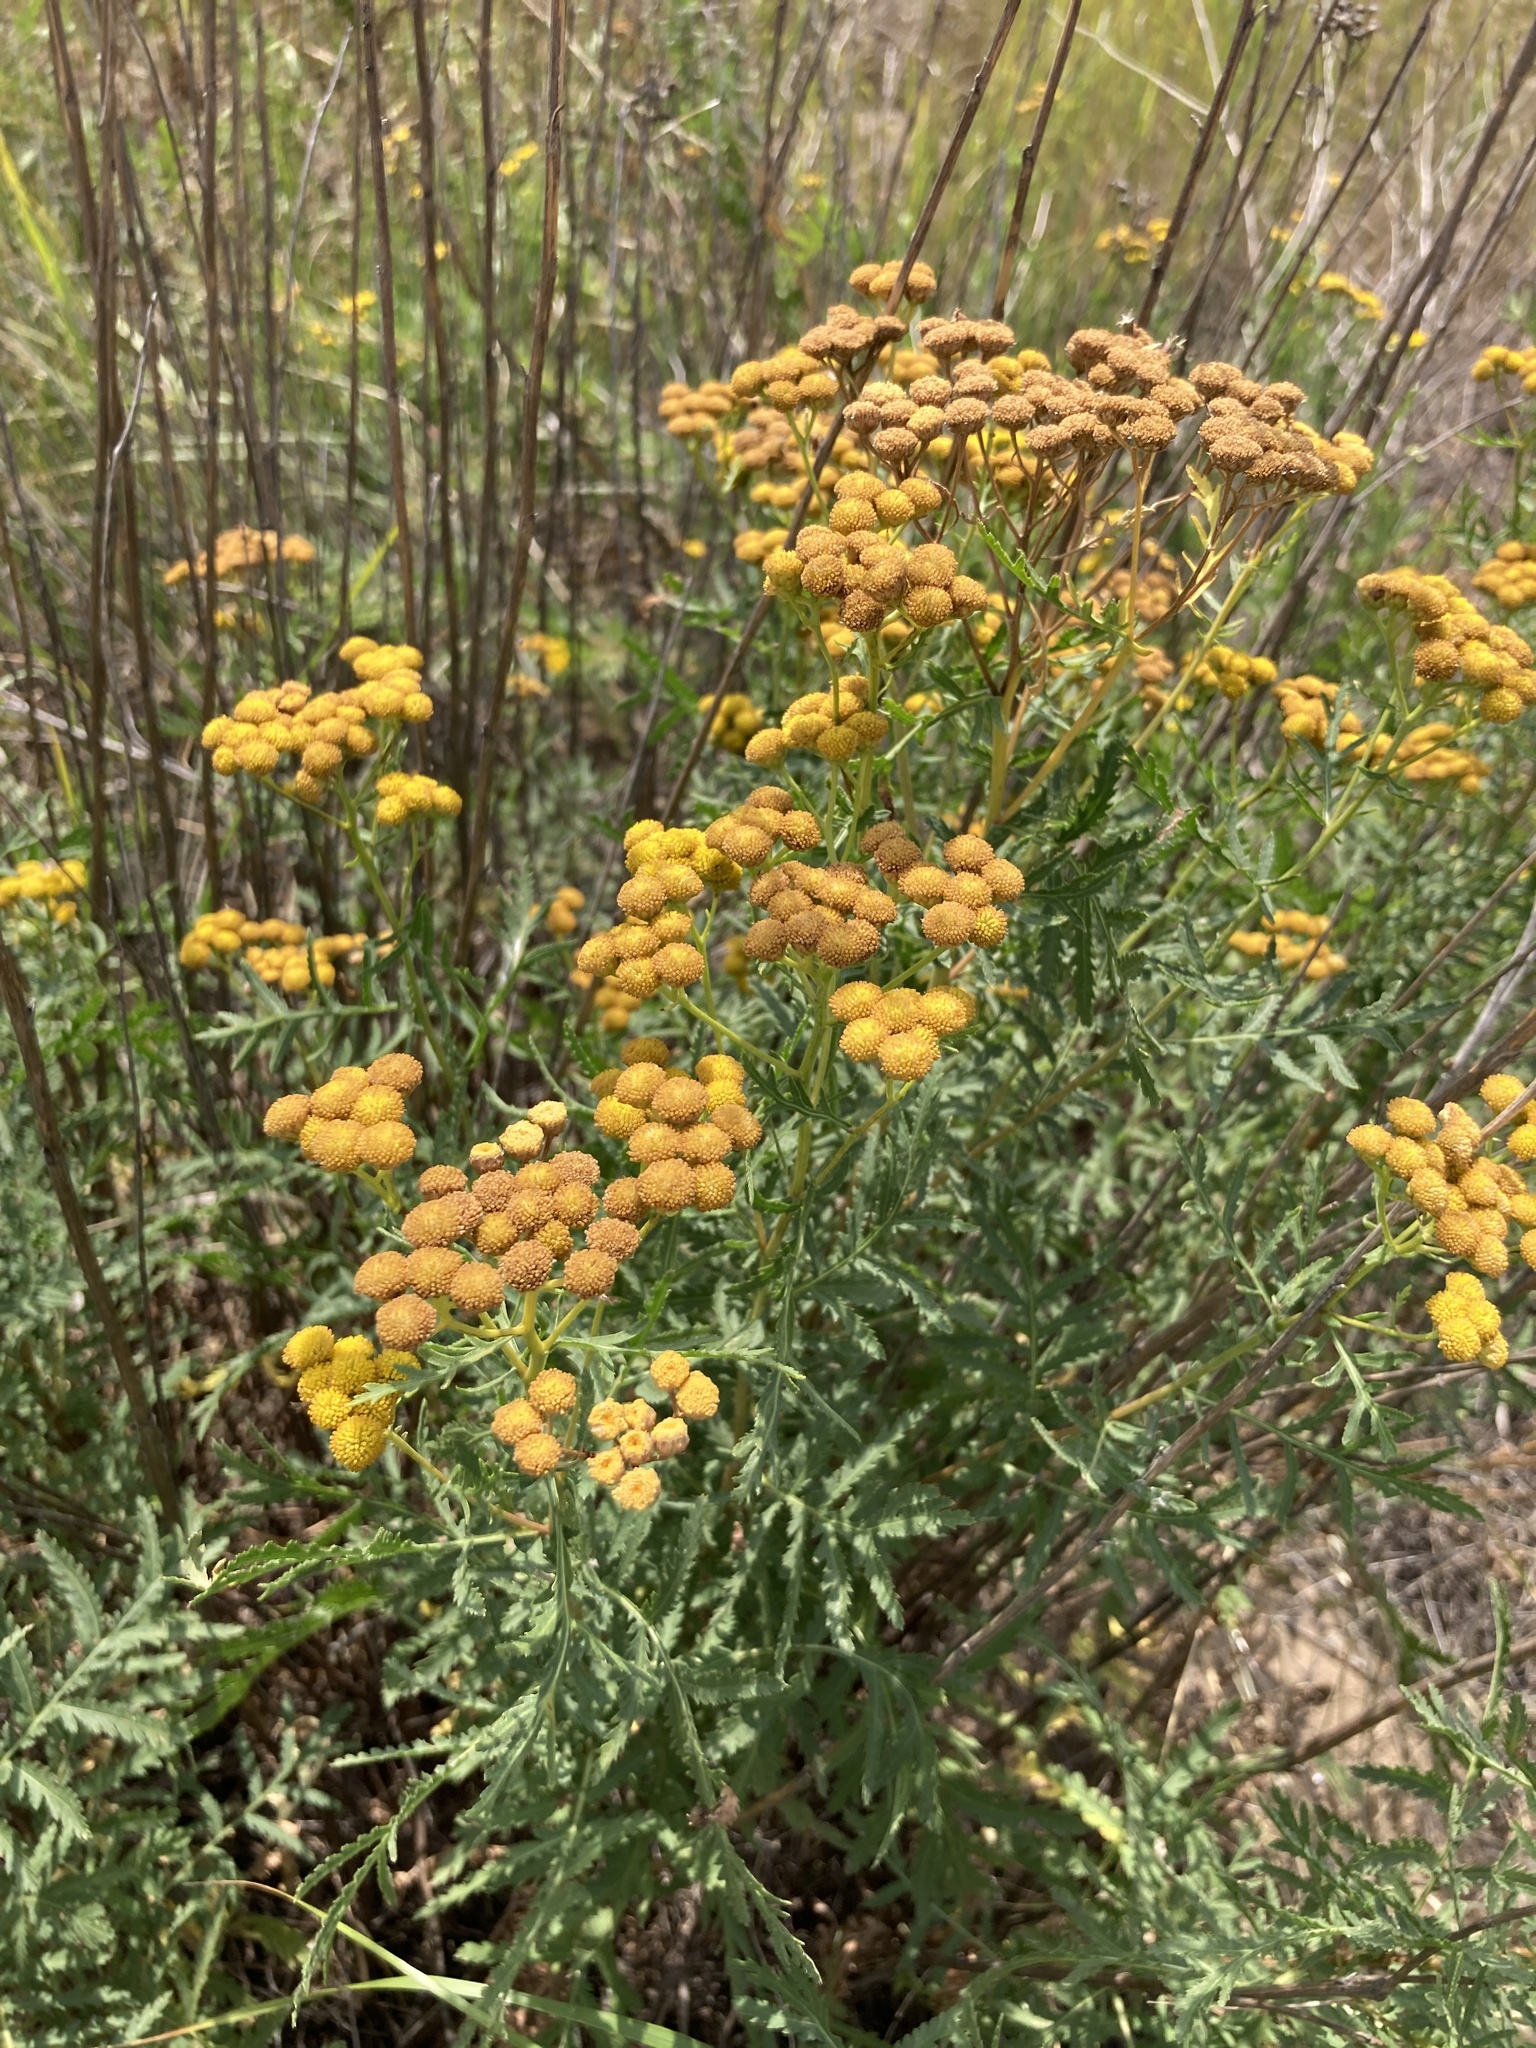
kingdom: Plantae
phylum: Tracheophyta
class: Magnoliopsida
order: Asterales
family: Asteraceae
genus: Tanacetum
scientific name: Tanacetum vulgare
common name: Common tansy
